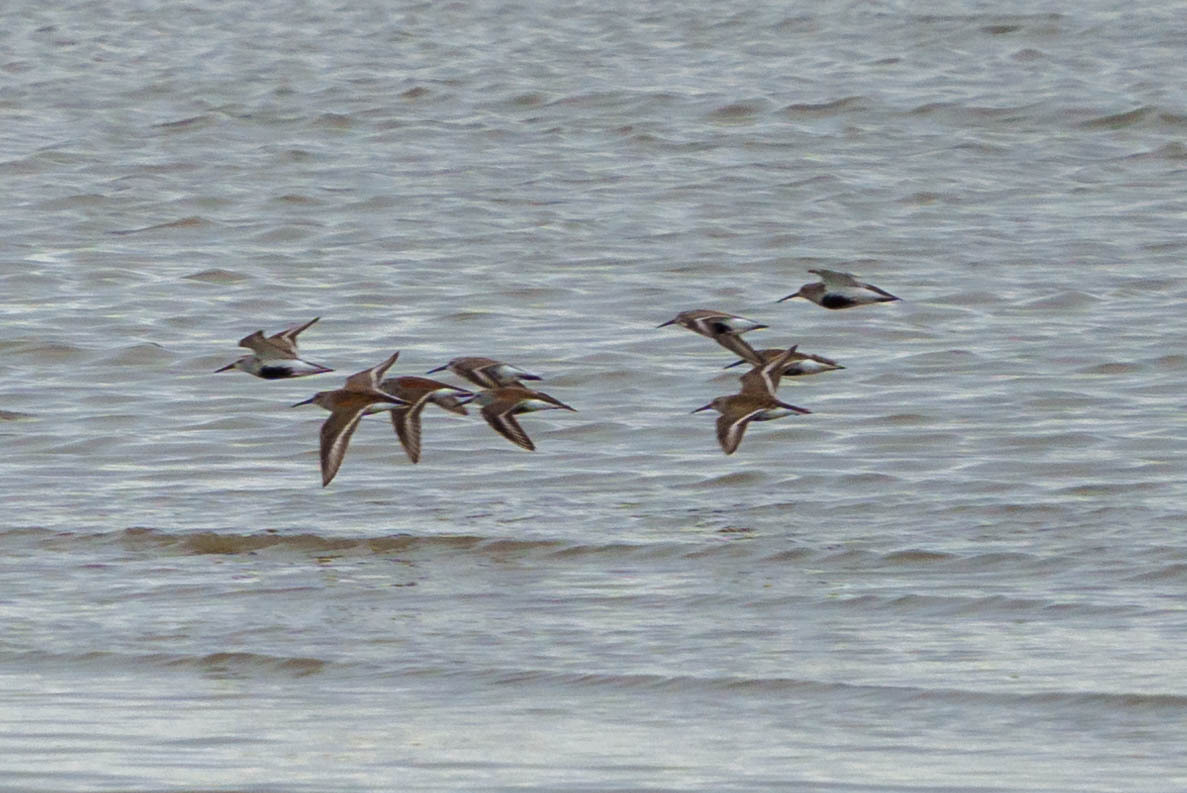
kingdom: Animalia
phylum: Chordata
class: Aves
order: Charadriiformes
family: Scolopacidae
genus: Calidris
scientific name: Calidris alpina
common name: Dunlin
